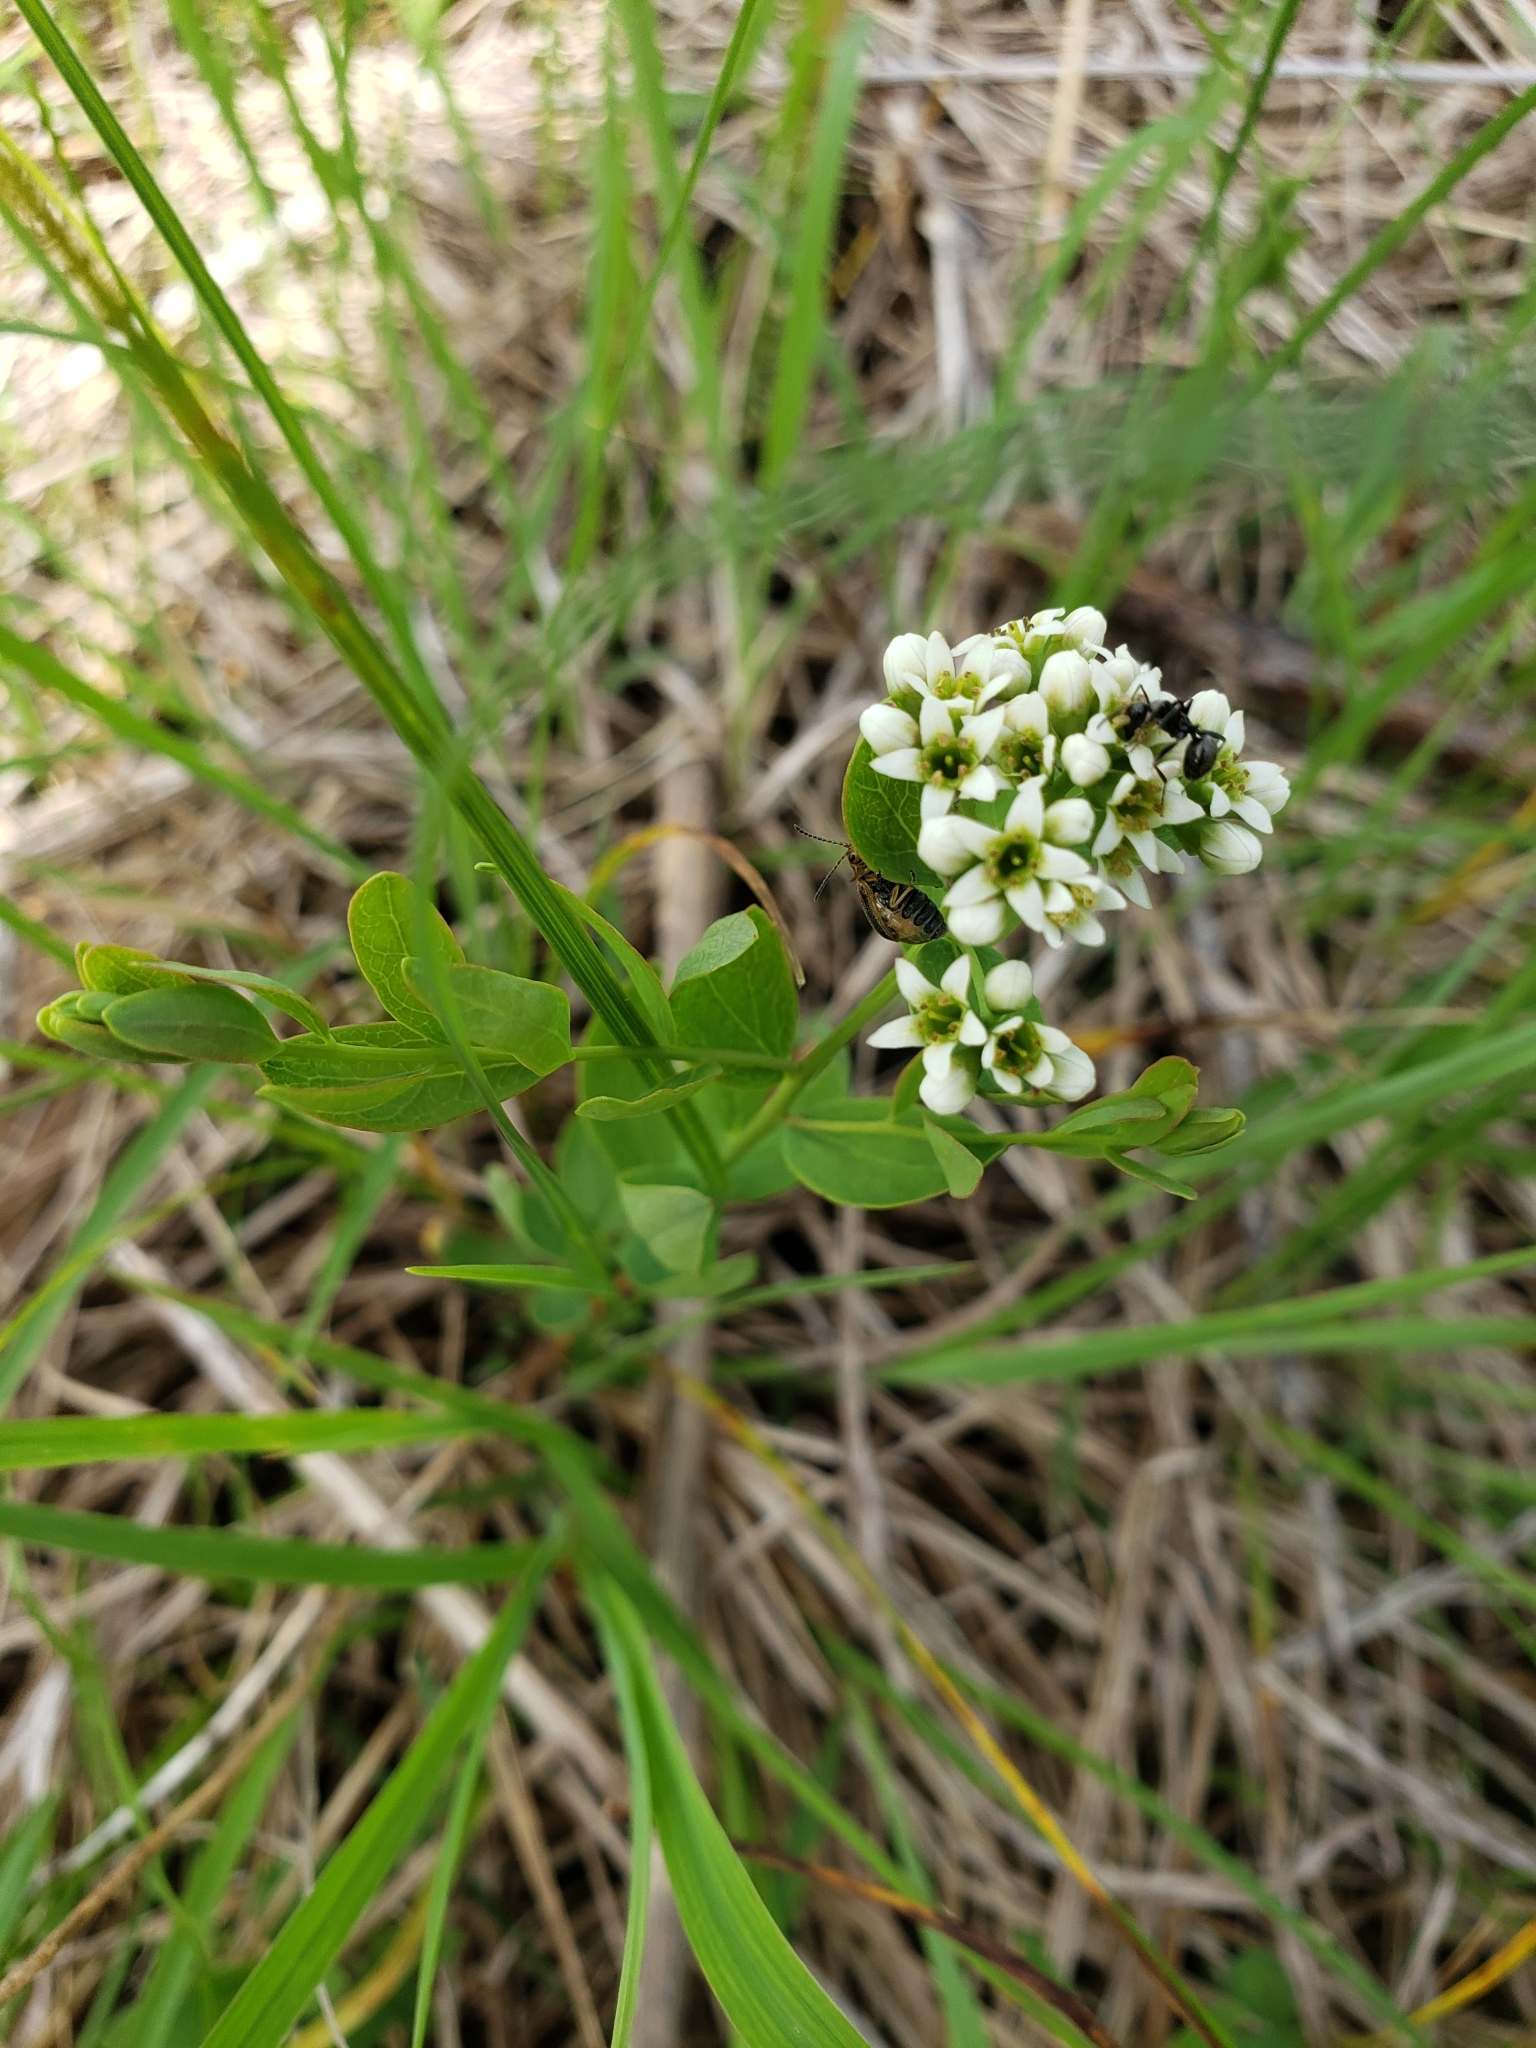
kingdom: Plantae
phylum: Tracheophyta
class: Magnoliopsida
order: Santalales
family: Comandraceae
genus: Comandra
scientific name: Comandra umbellata
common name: Bastard toadflax
